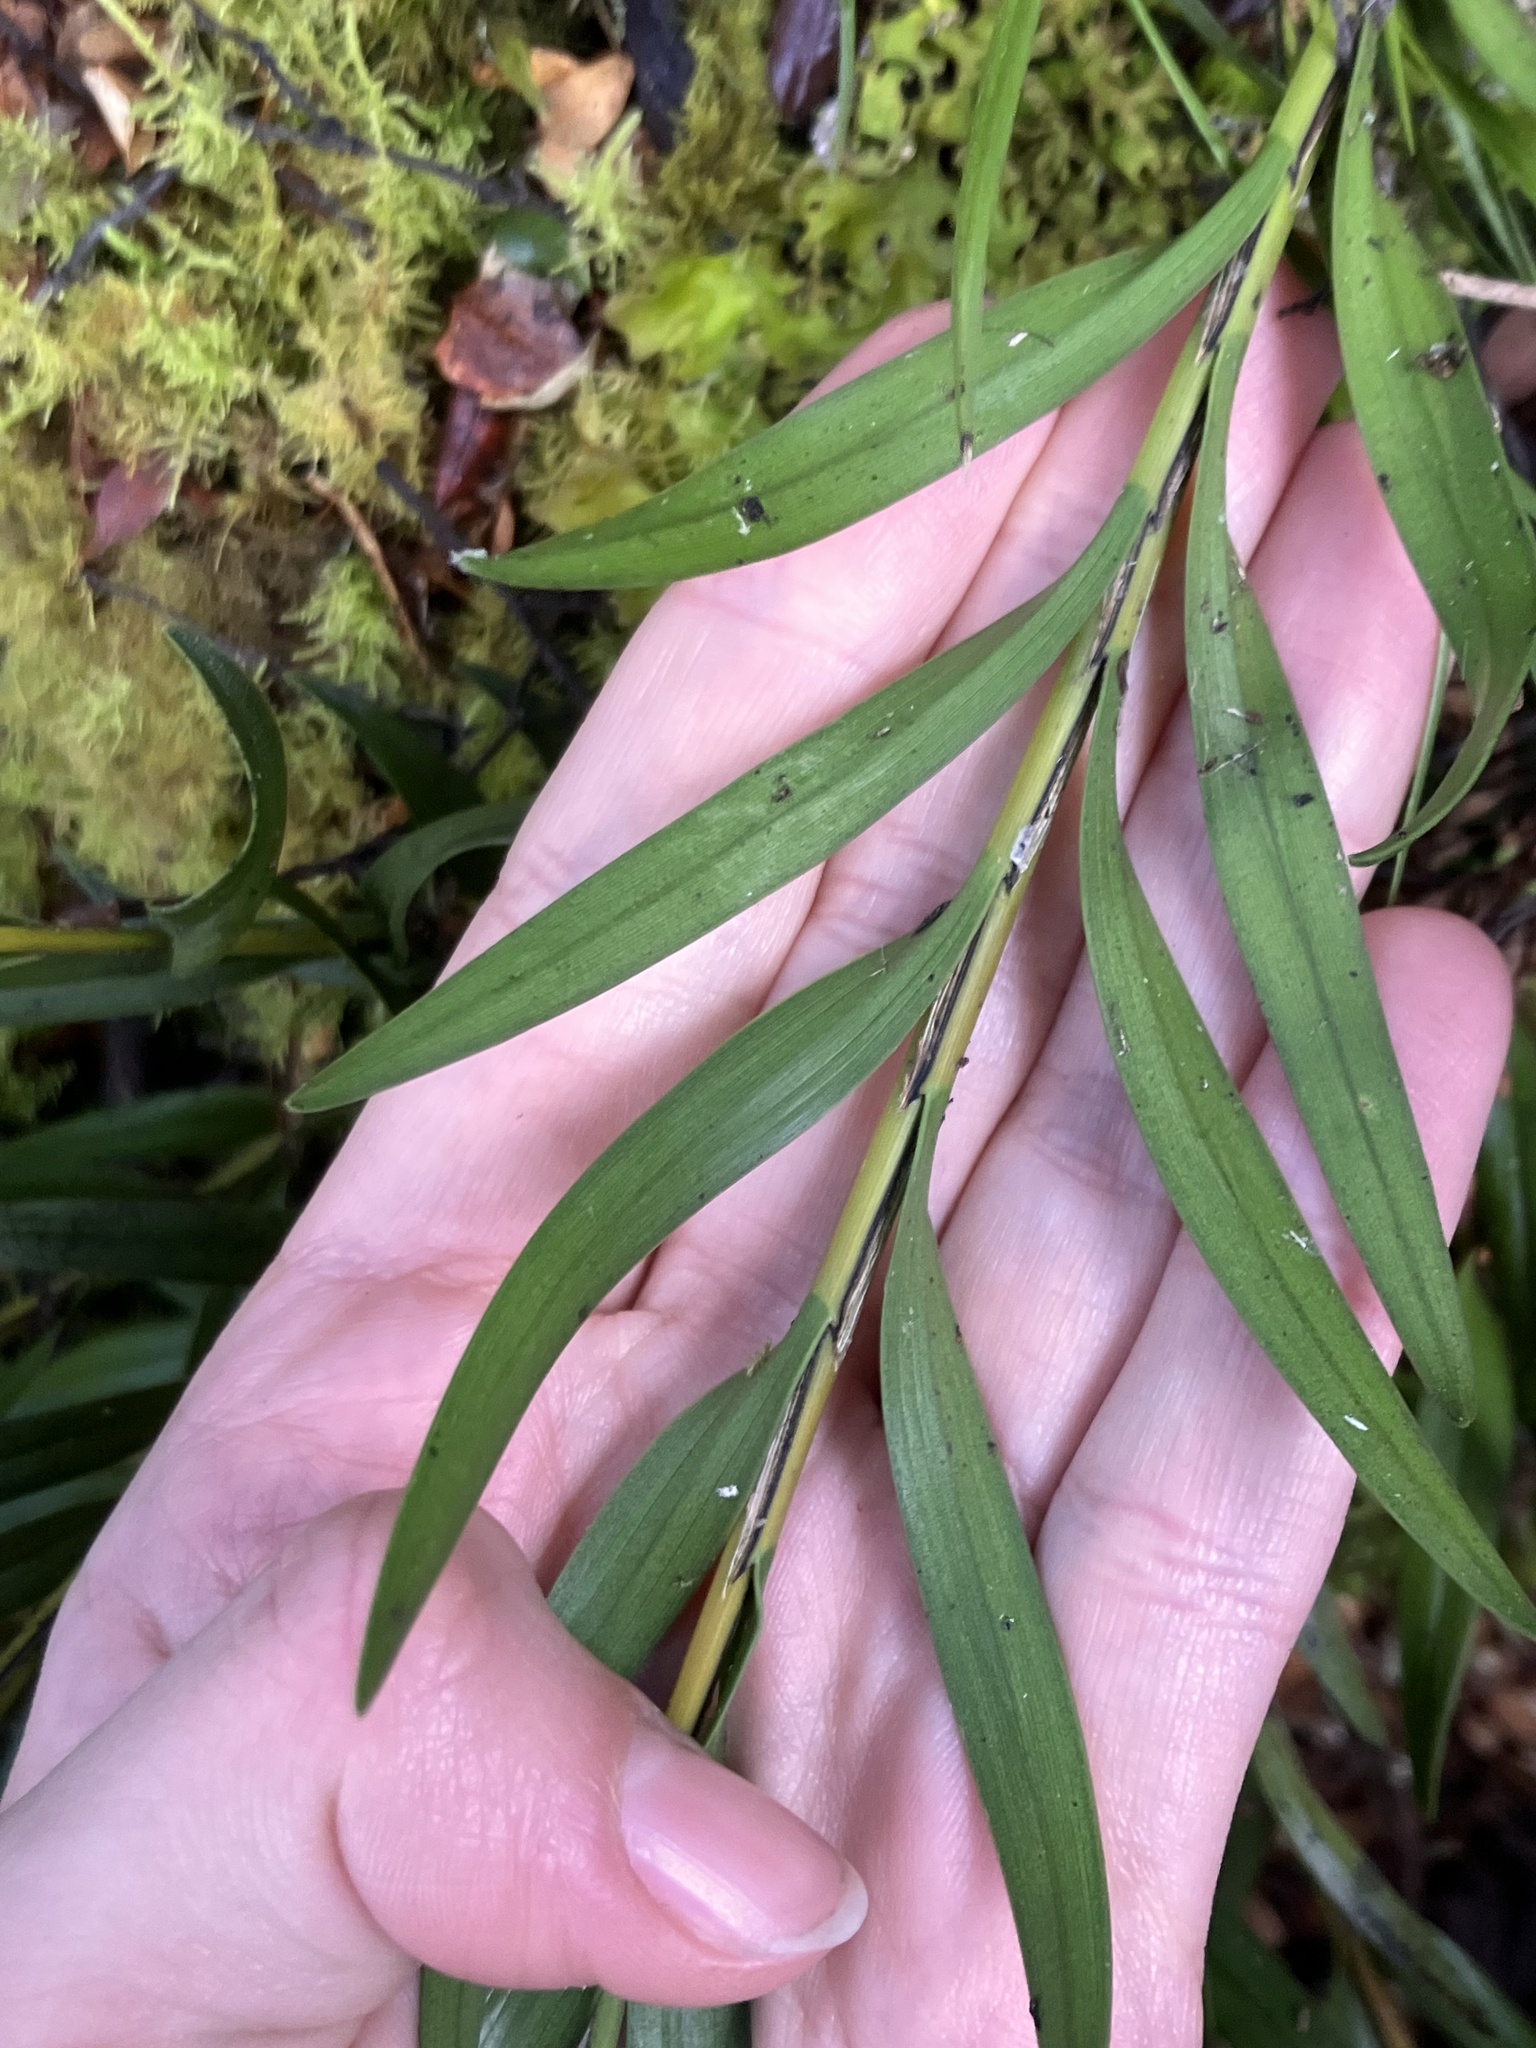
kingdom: Plantae
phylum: Tracheophyta
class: Liliopsida
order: Asparagales
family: Orchidaceae
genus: Earina
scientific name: Earina autumnalis
